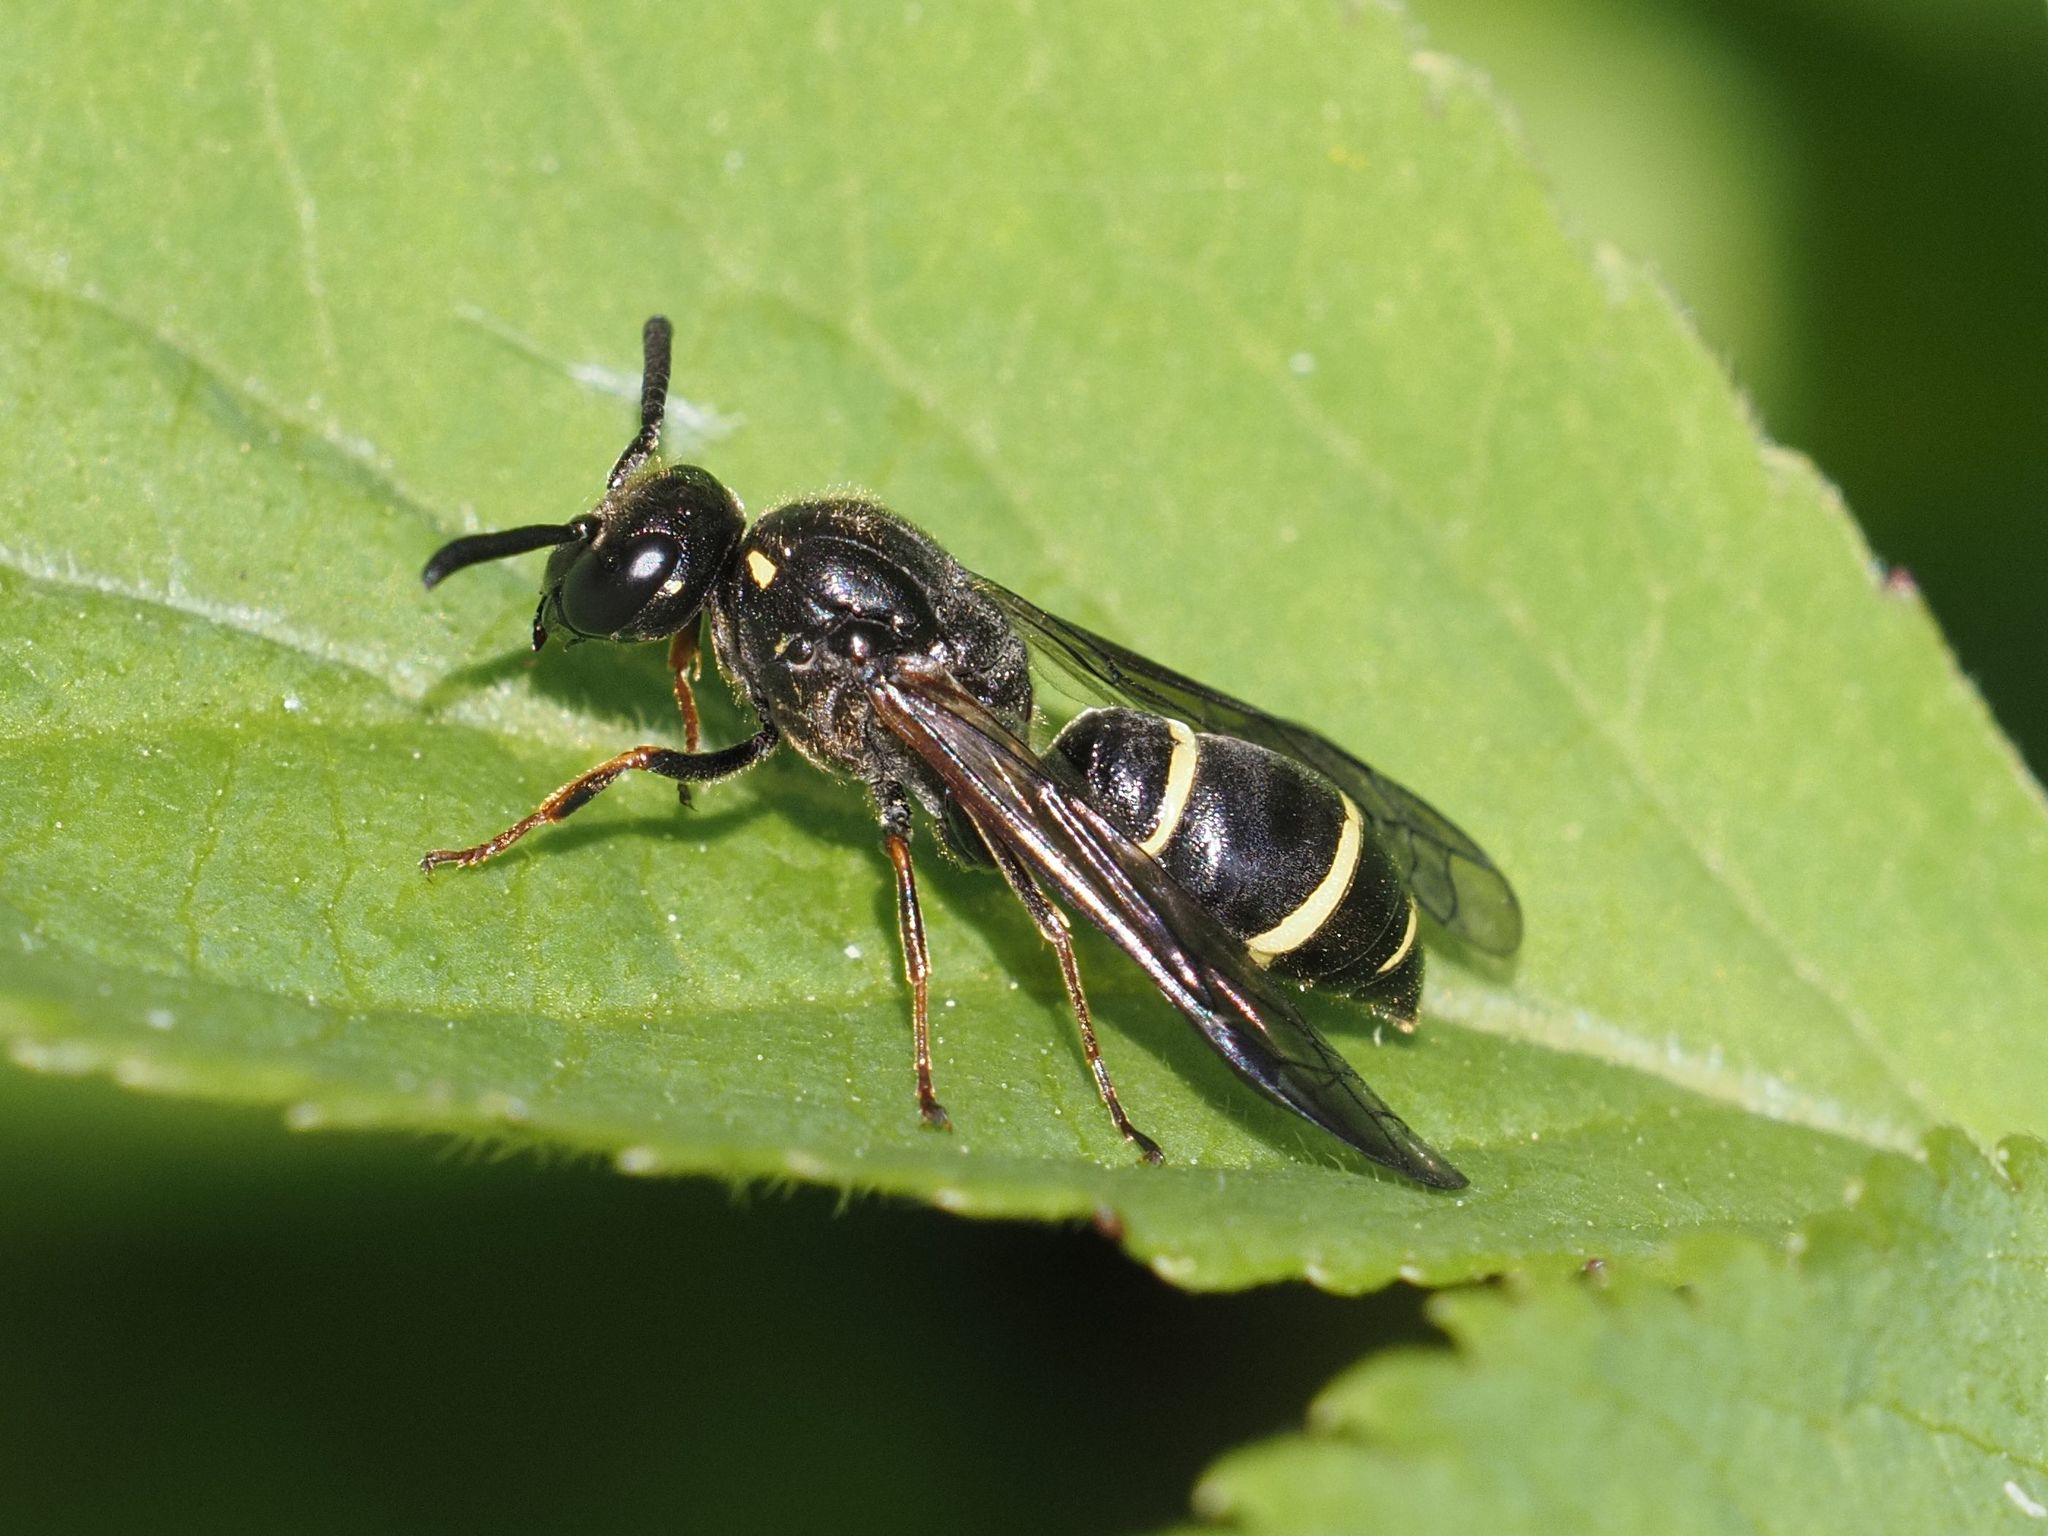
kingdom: Animalia
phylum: Arthropoda
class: Insecta
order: Hymenoptera
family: Eumenidae
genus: Symmorphus
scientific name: Symmorphus angustatus
